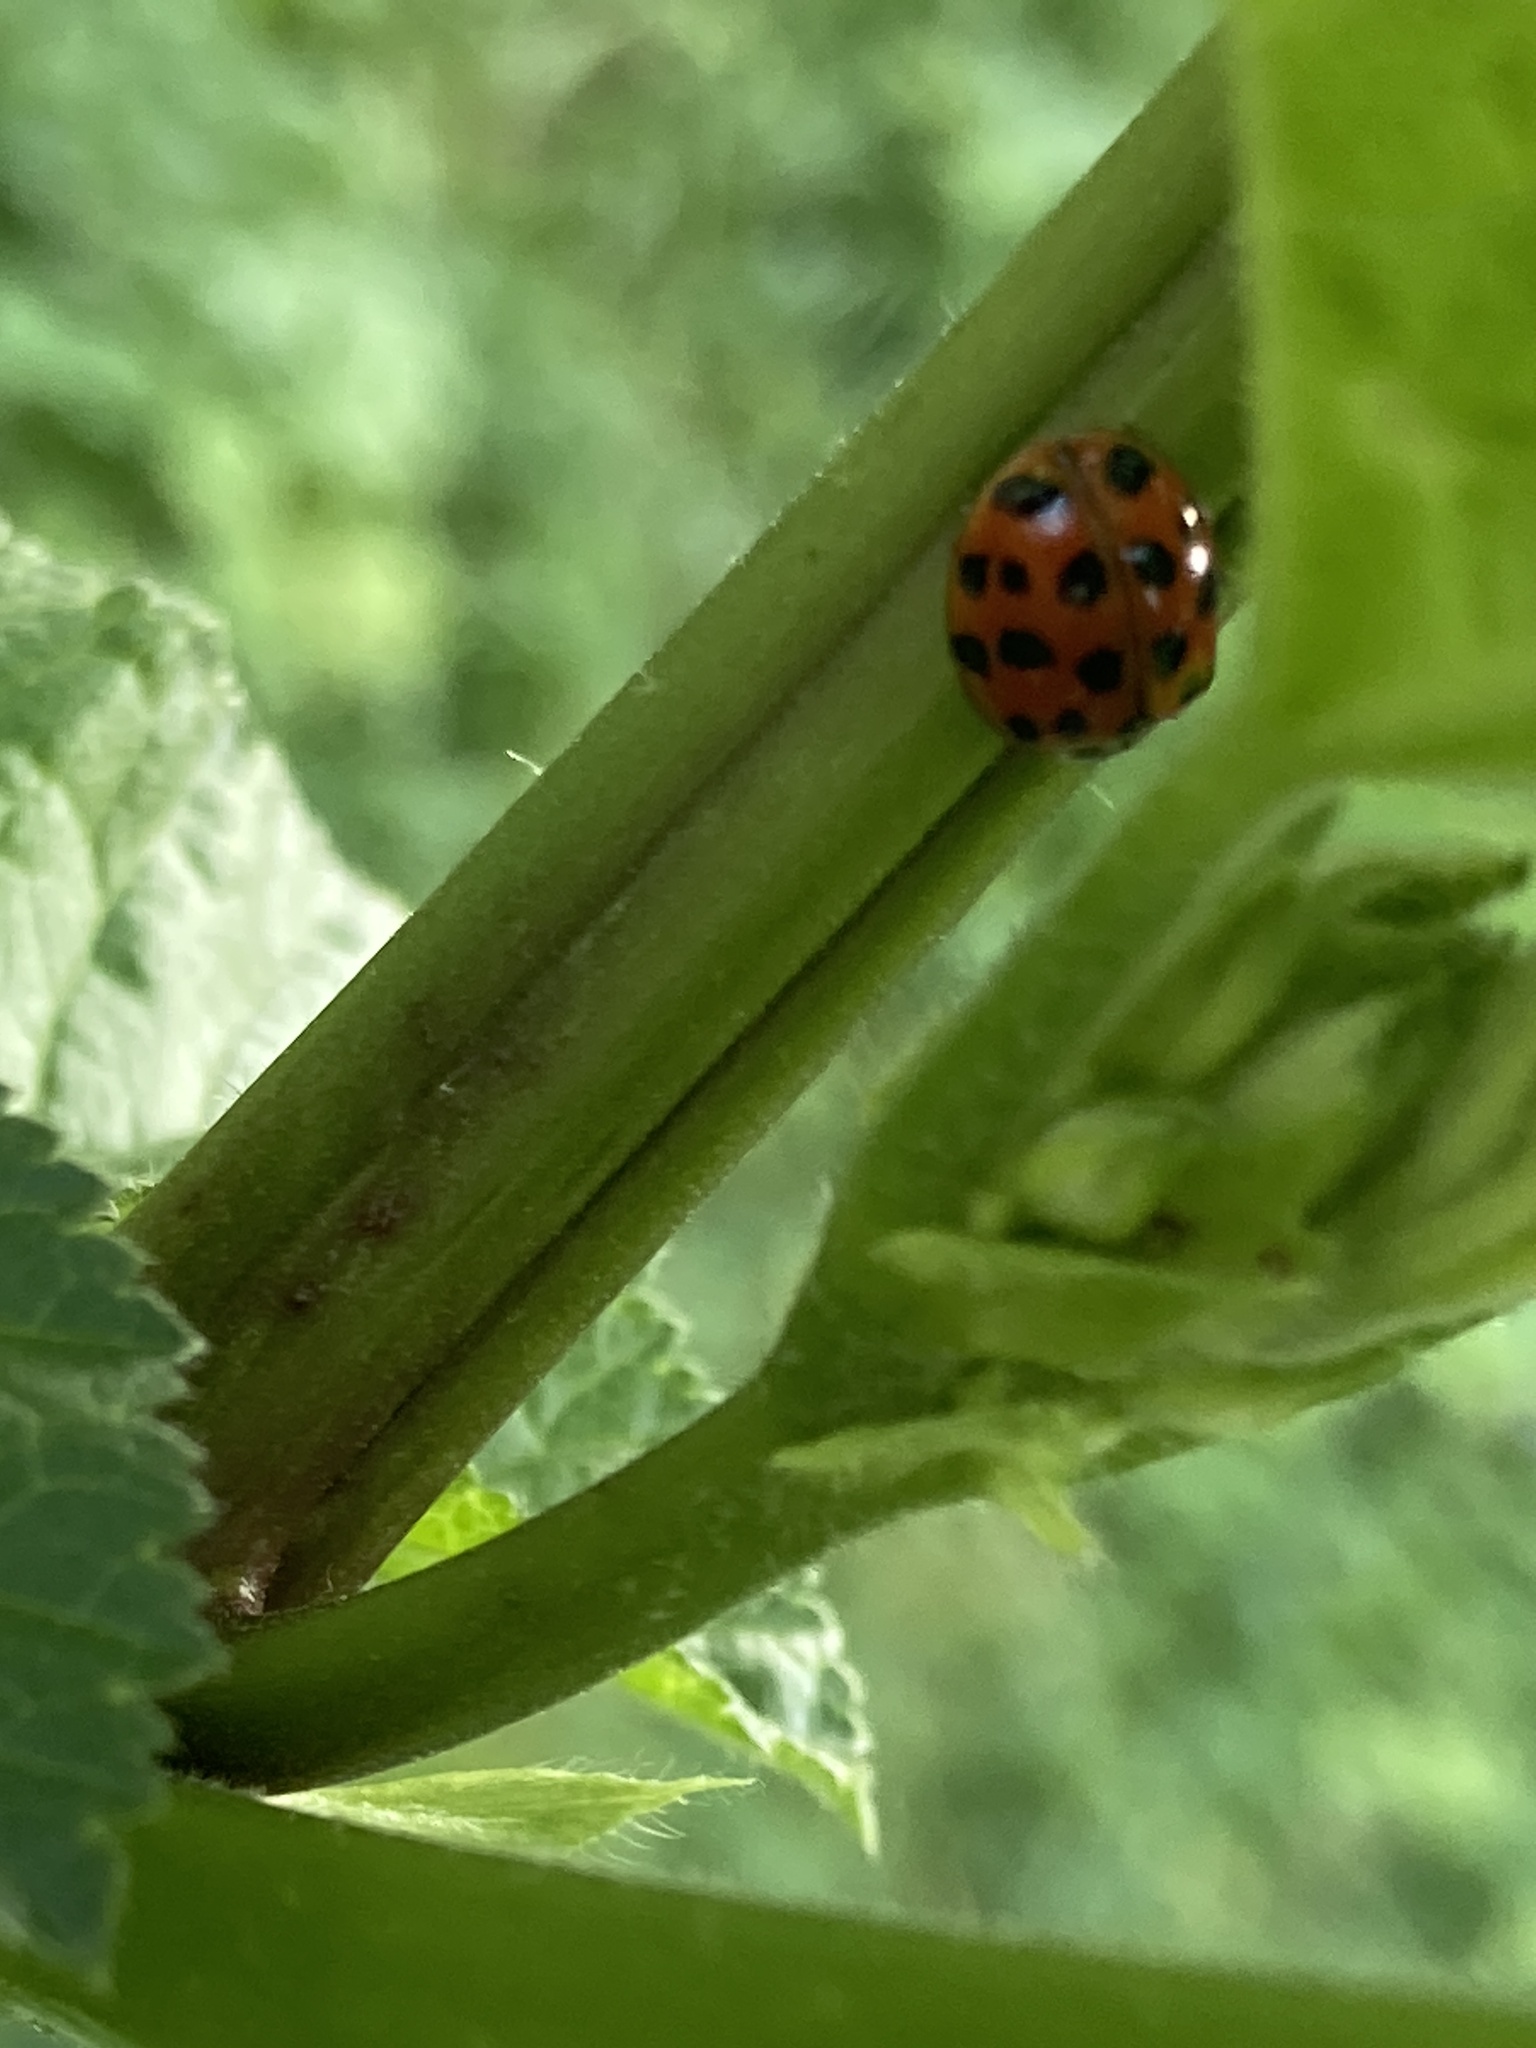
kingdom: Animalia
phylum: Arthropoda
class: Insecta
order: Coleoptera
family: Coccinellidae
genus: Harmonia
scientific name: Harmonia axyridis
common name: Harlequin ladybird
